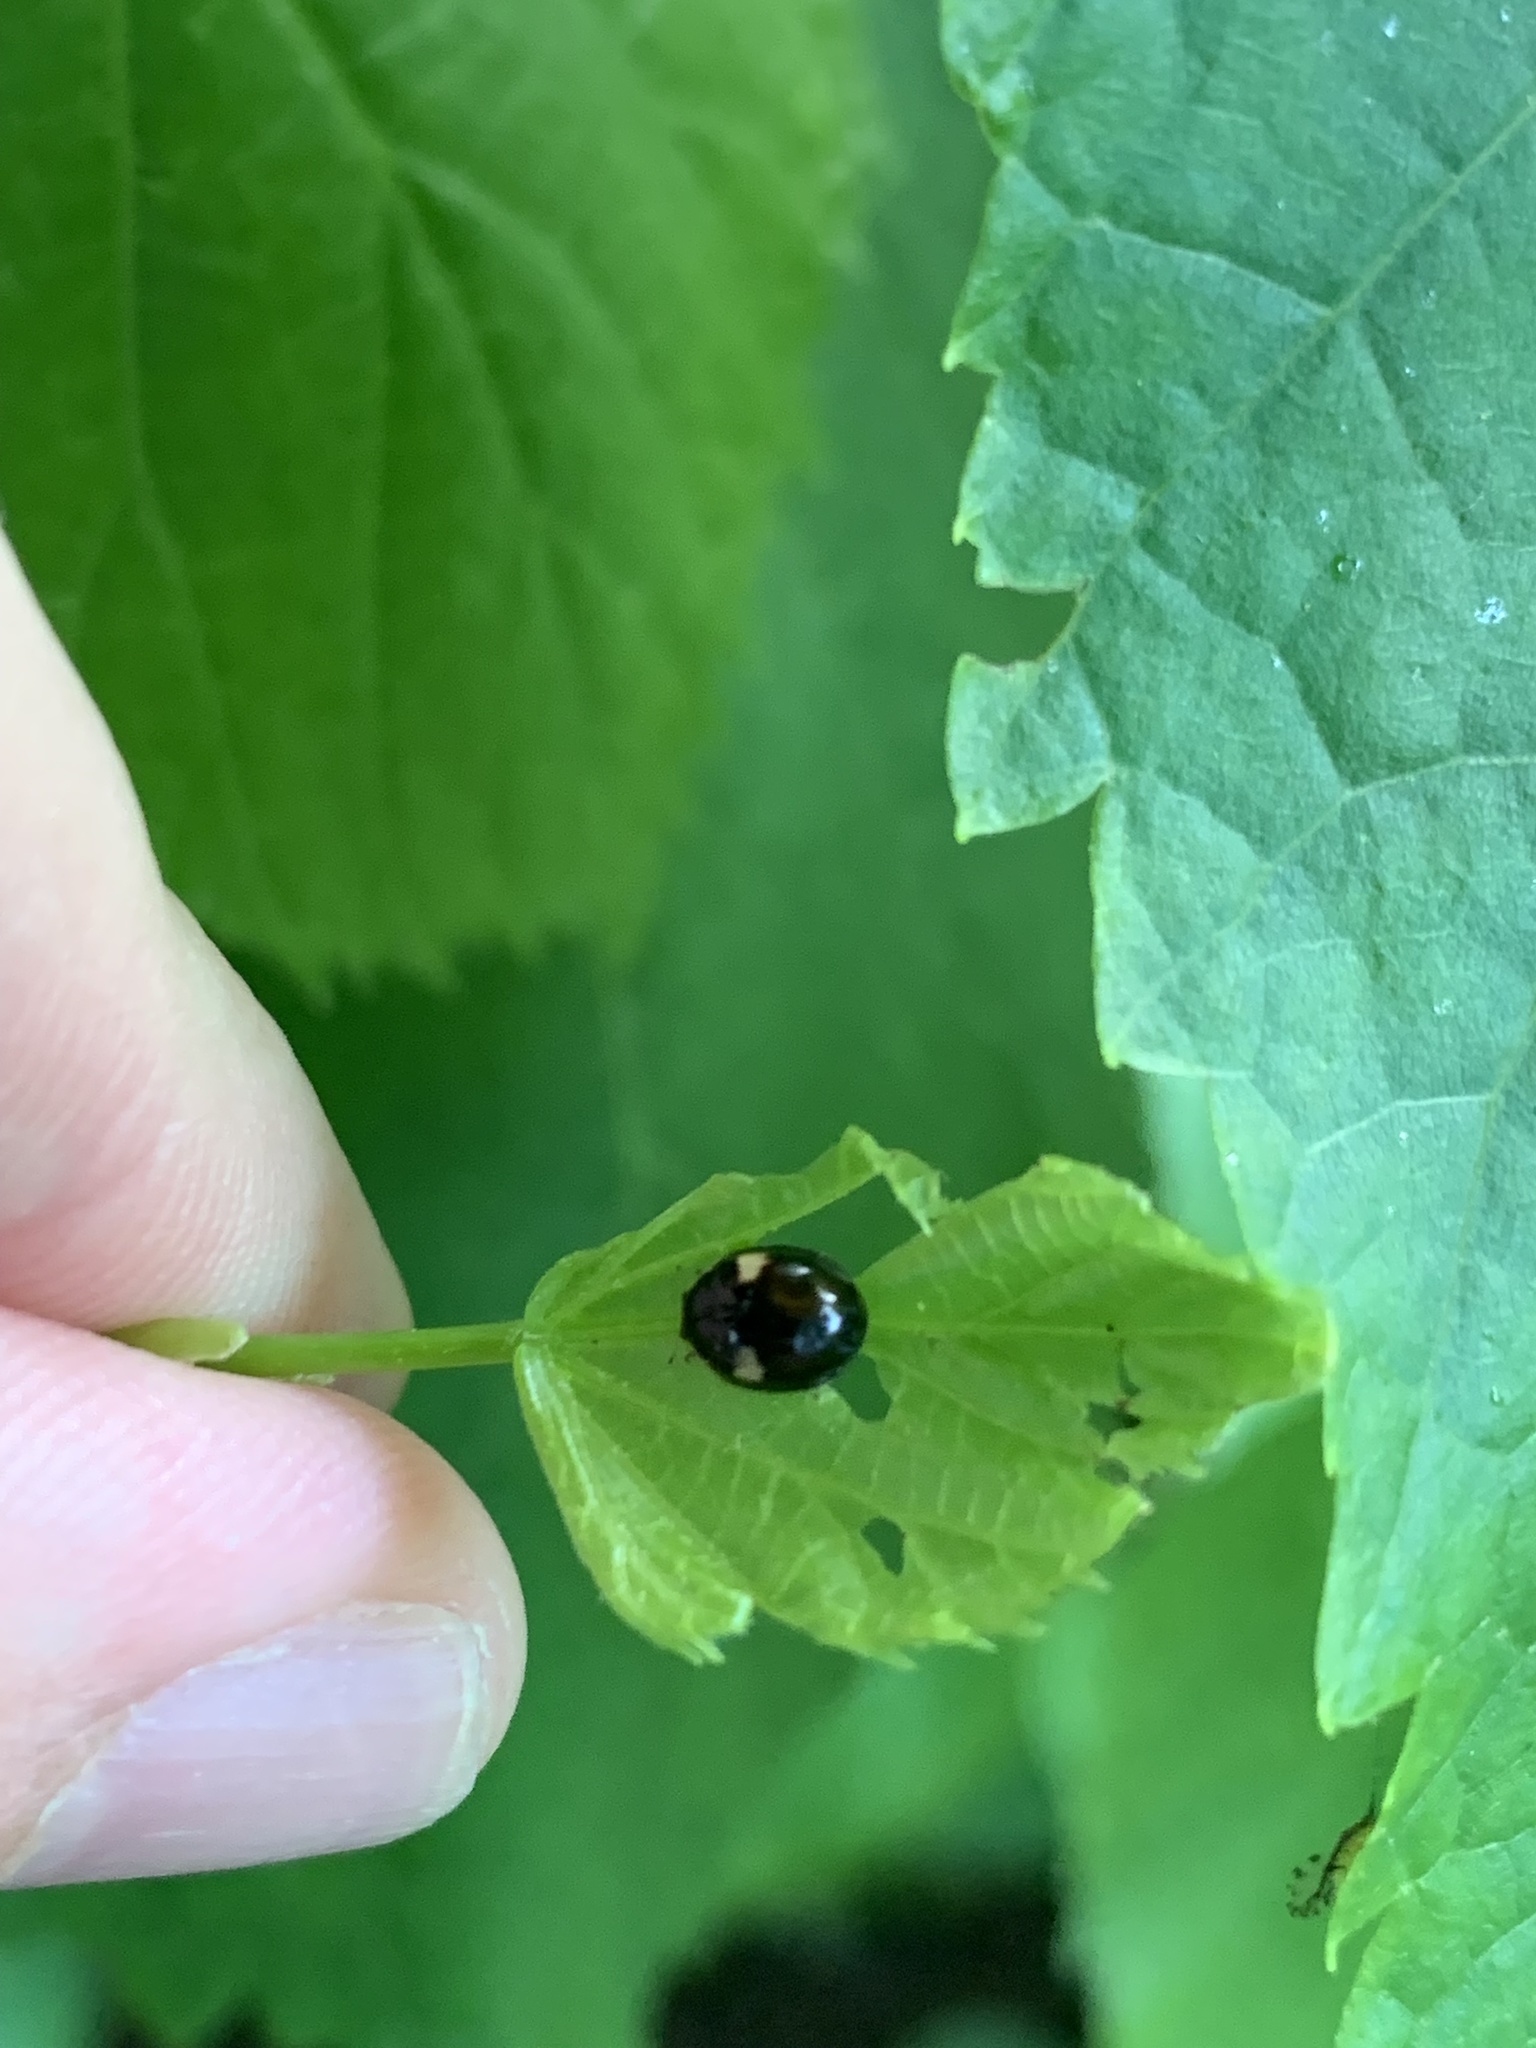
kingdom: Animalia
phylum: Arthropoda
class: Insecta
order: Coleoptera
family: Coccinellidae
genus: Adalia
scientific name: Adalia decempunctata
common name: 10-spot ladybird
